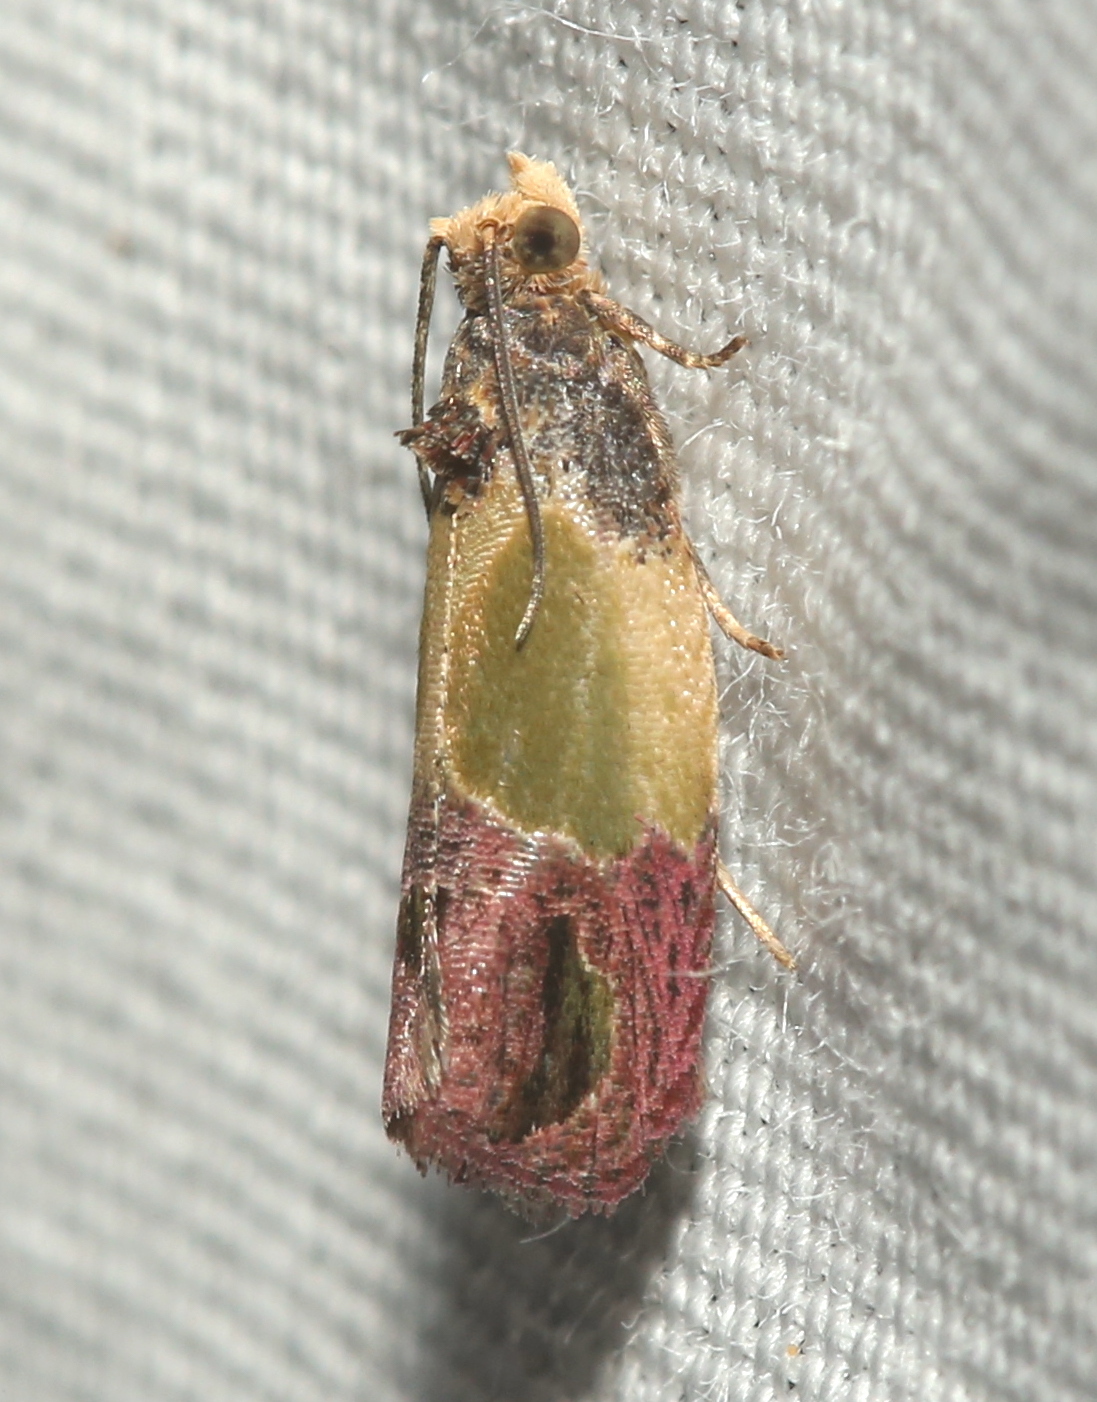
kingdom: Animalia
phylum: Arthropoda
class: Insecta
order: Lepidoptera
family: Tortricidae
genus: Eumarozia
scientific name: Eumarozia malachitana
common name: Sculptured moth
